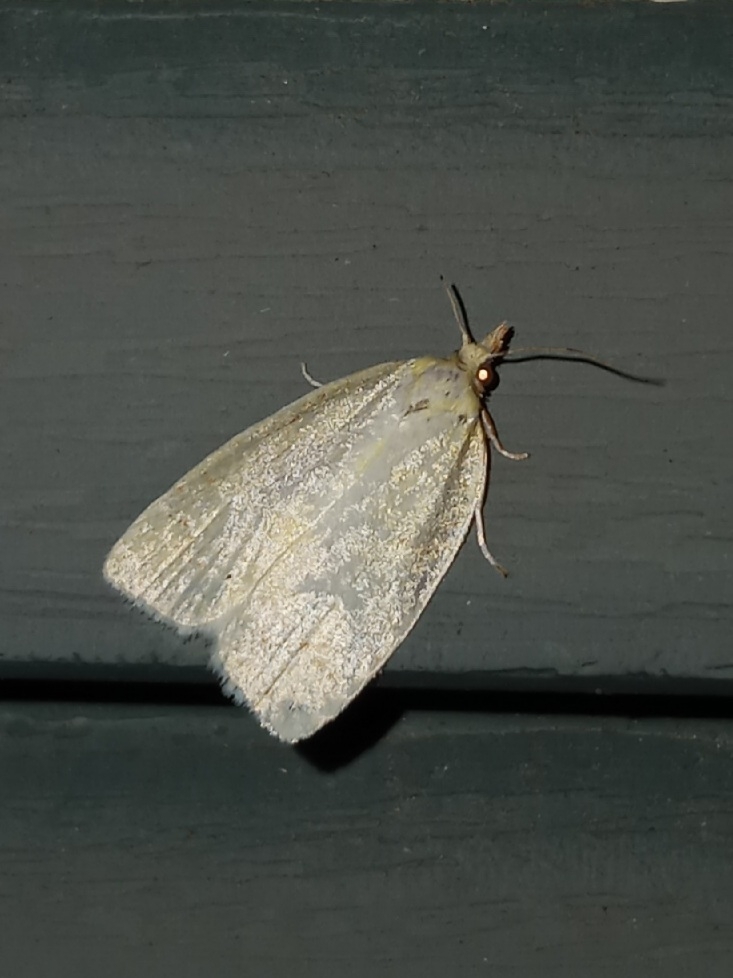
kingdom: Animalia
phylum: Arthropoda
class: Insecta
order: Lepidoptera
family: Tortricidae
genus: Cenopis
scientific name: Cenopis pettitana
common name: Maple-basswood leafroller moth
